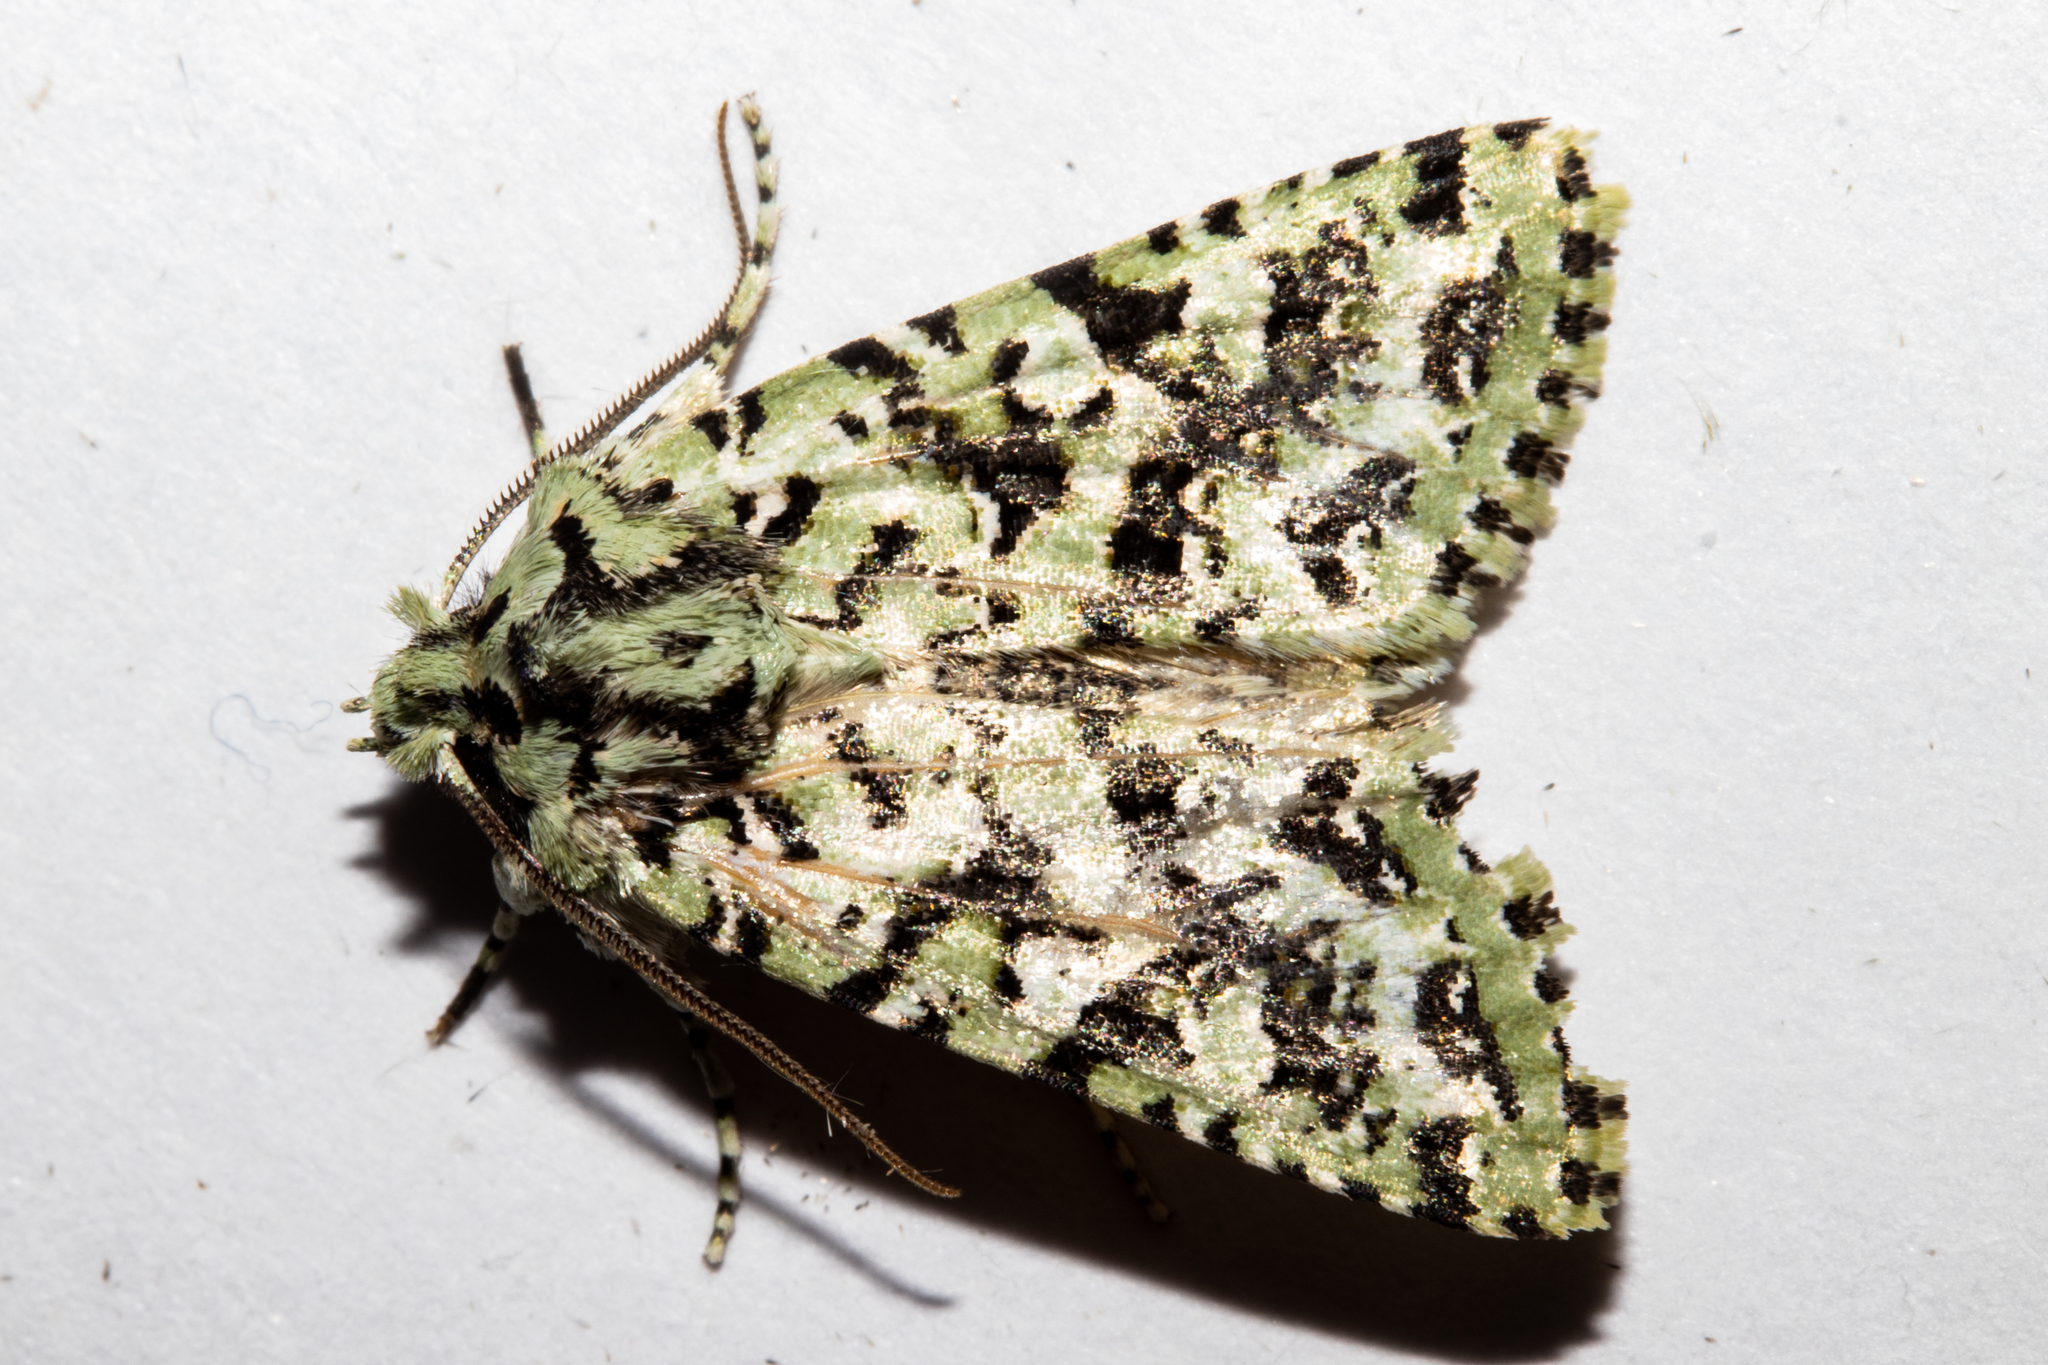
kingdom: Animalia
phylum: Arthropoda
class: Insecta
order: Lepidoptera
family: Noctuidae
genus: Meterana
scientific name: Meterana
